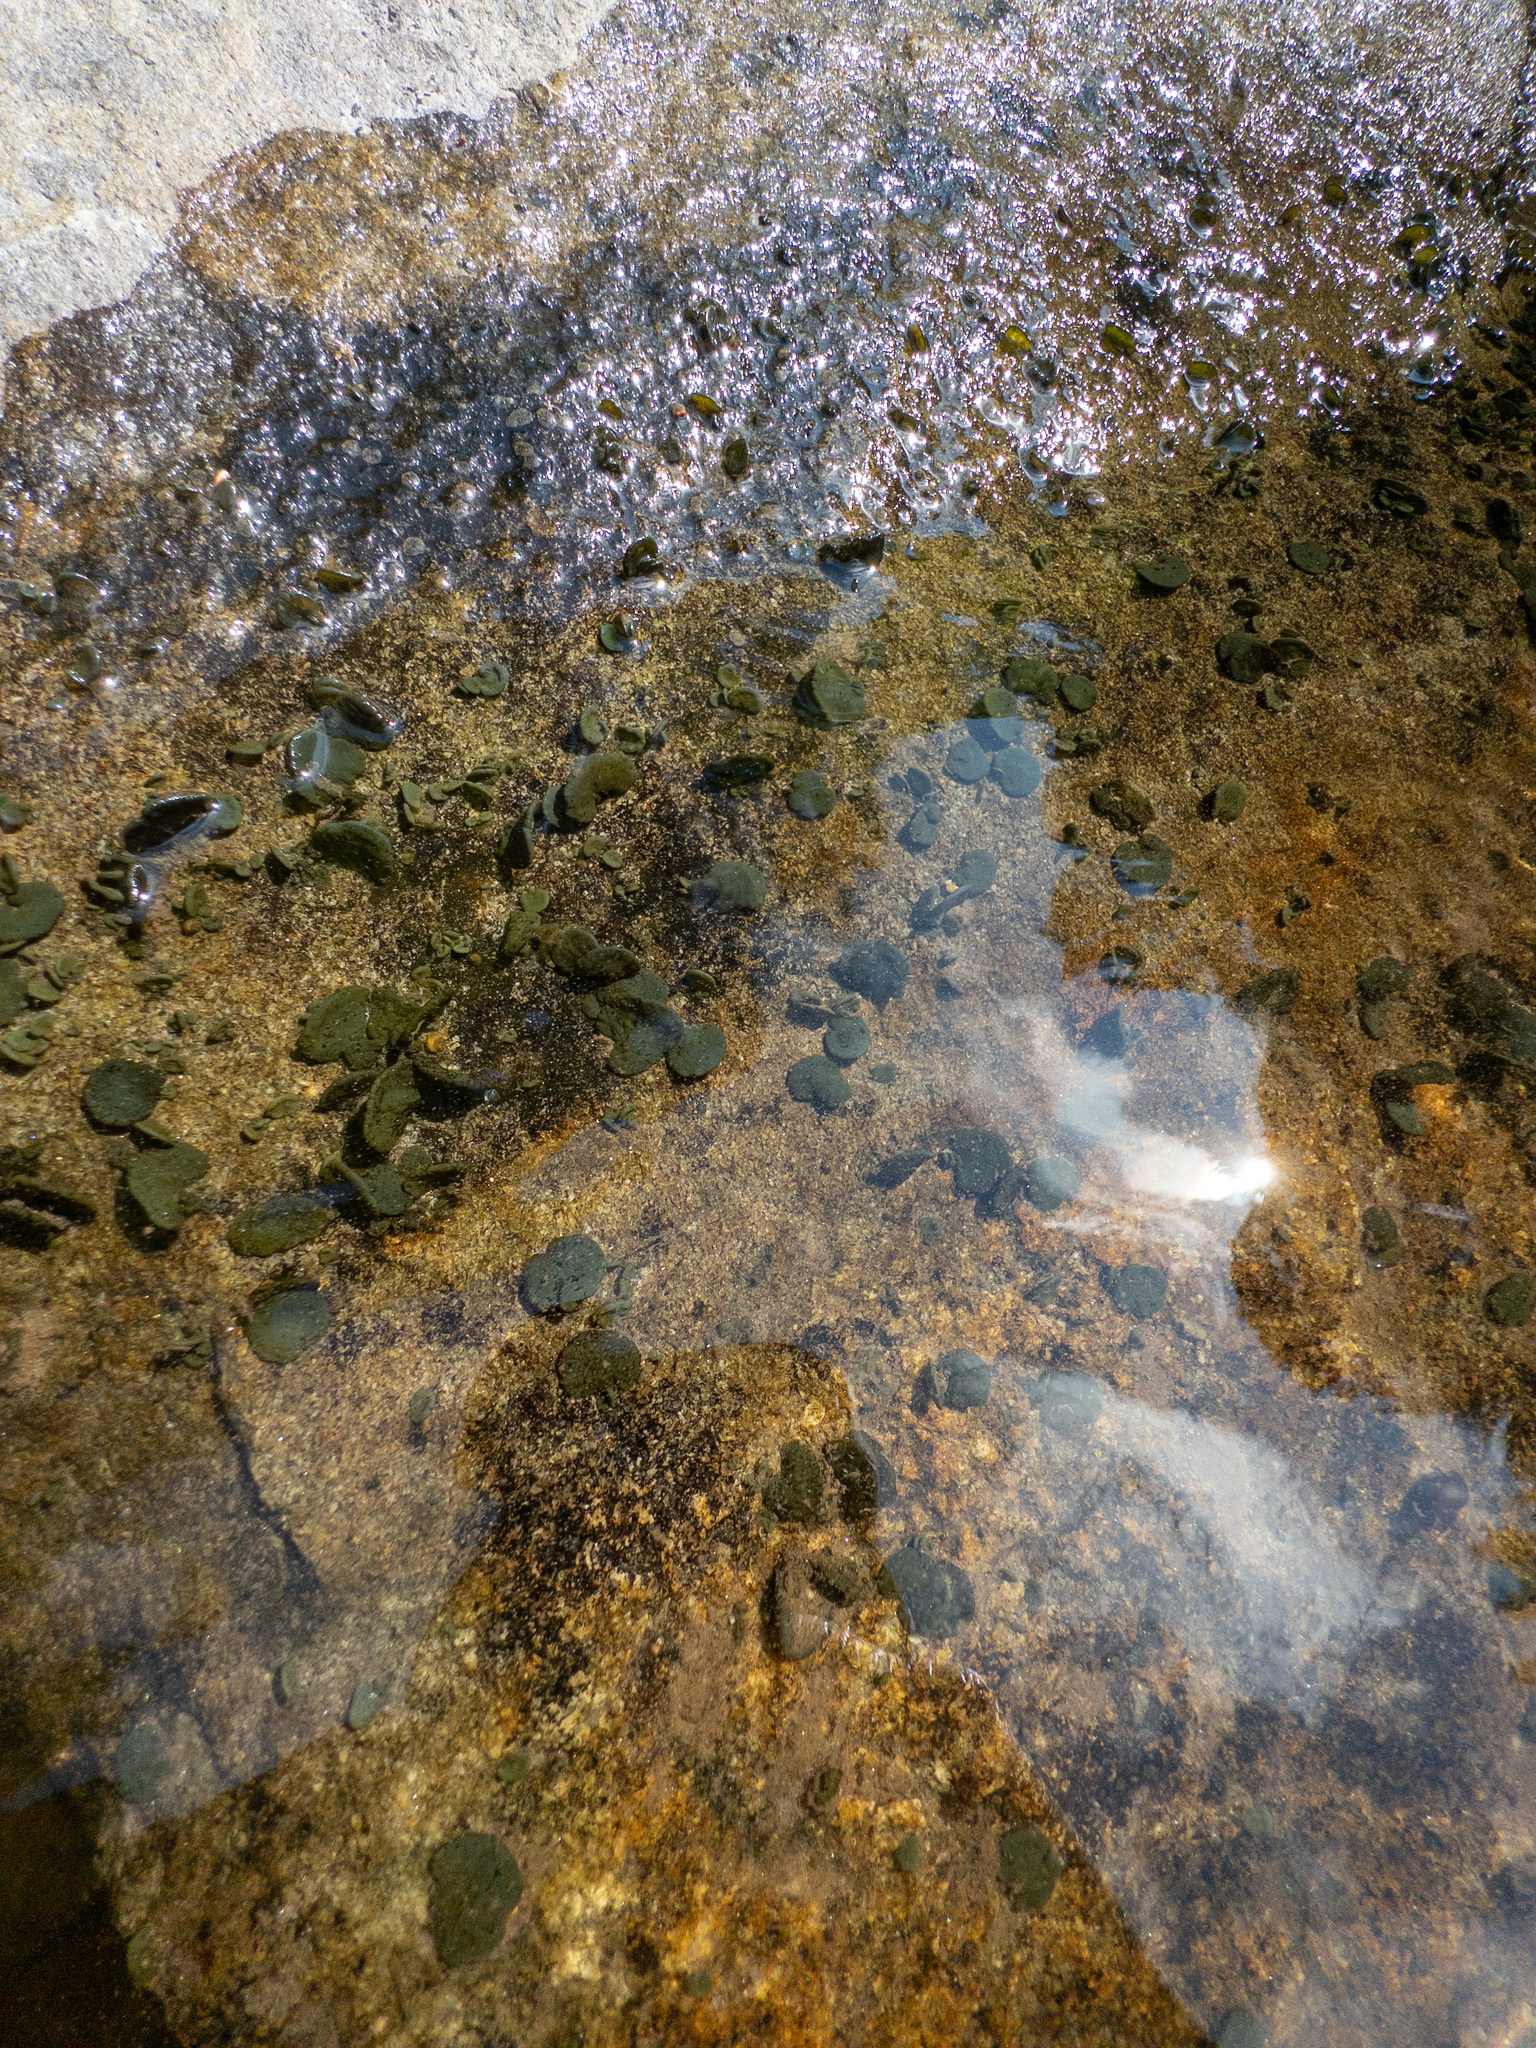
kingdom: Bacteria
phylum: Cyanobacteria
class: Cyanobacteriia
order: Cyanobacteriales
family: Nostocaceae
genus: Nostoc
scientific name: Nostoc parmelioides
